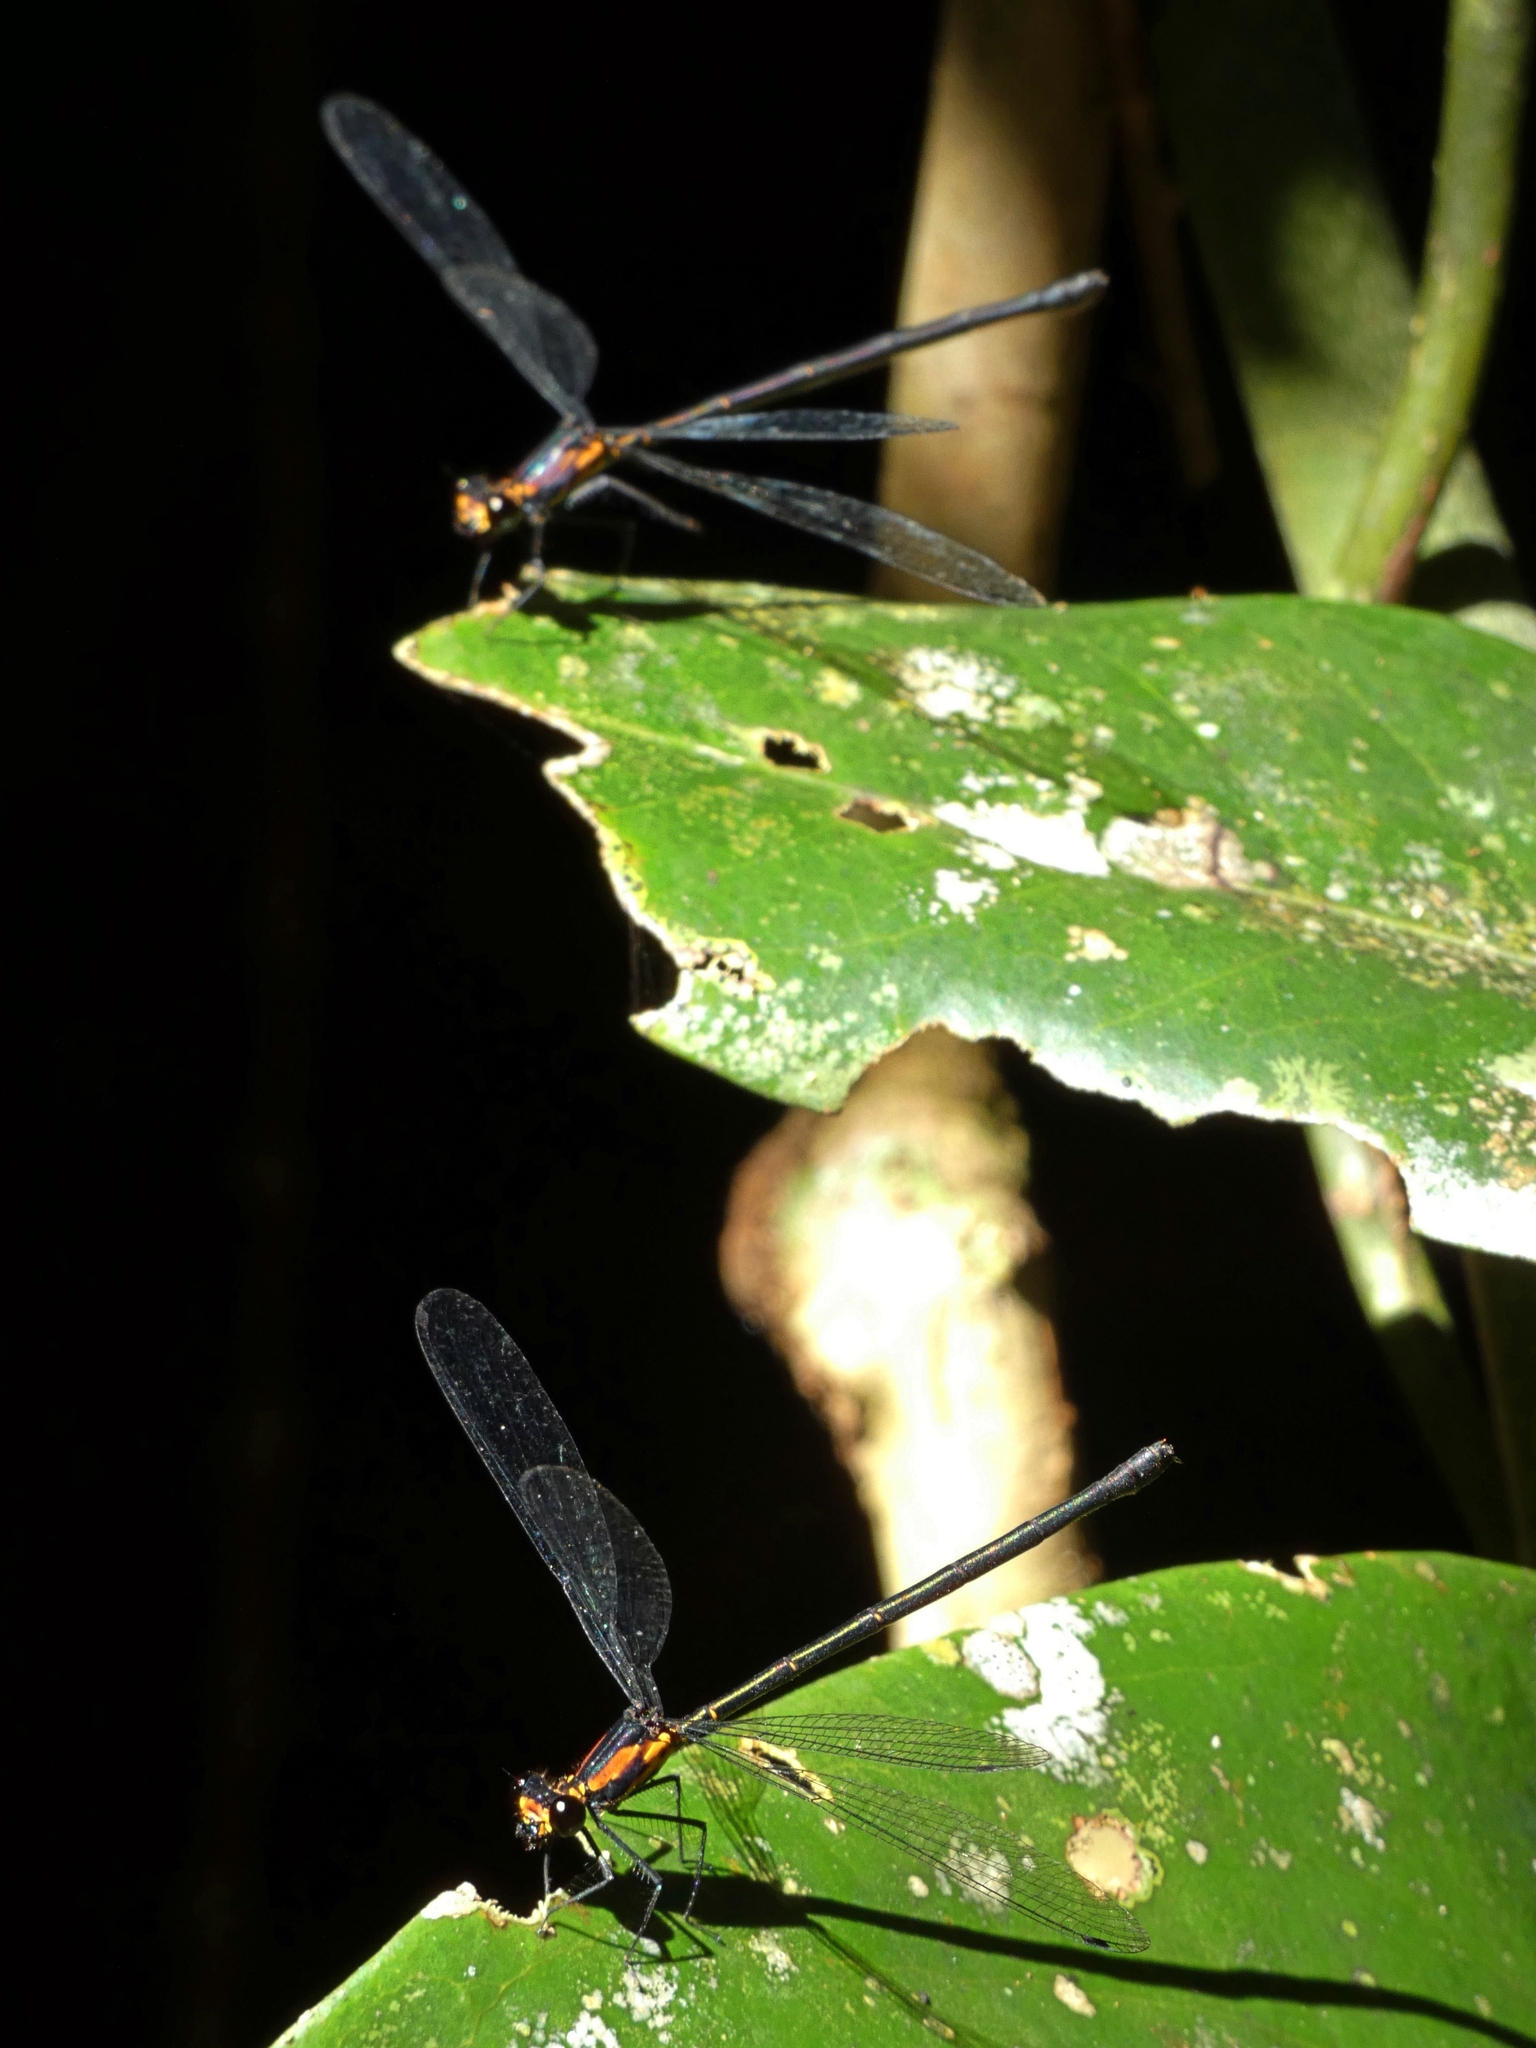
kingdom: Animalia
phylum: Arthropoda
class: Insecta
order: Odonata
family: Argiolestidae
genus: Austroargiolestes
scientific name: Austroargiolestes aureus
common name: Tropical flatwing
